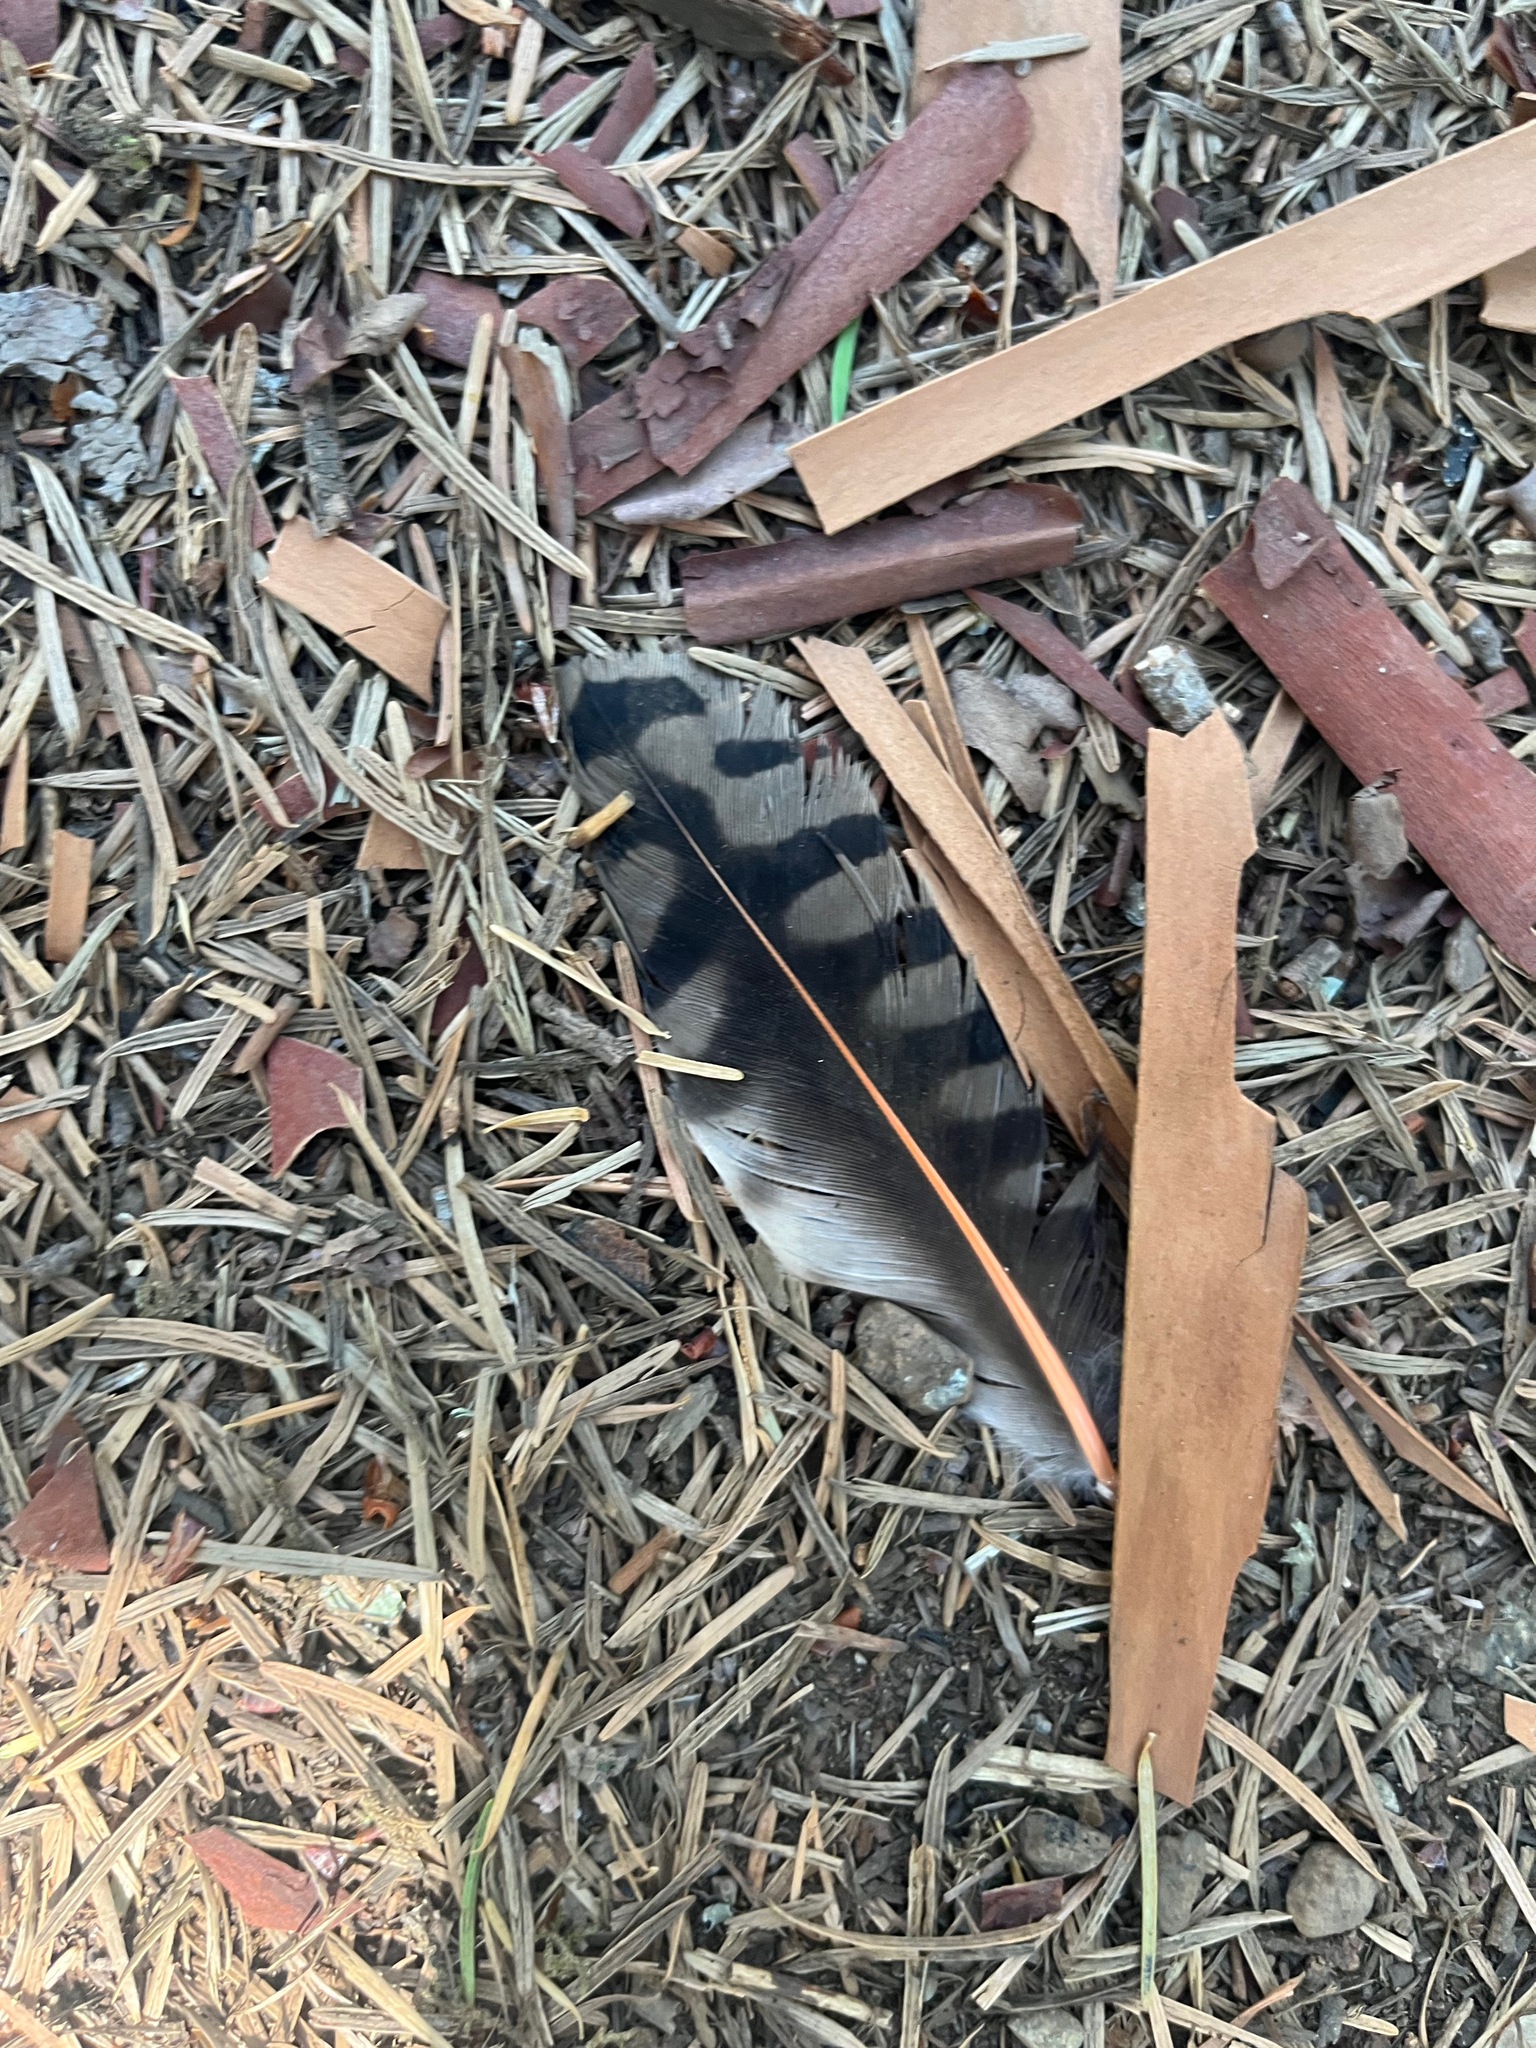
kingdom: Animalia
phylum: Chordata
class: Aves
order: Piciformes
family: Picidae
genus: Colaptes
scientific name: Colaptes auratus
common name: Northern flicker
